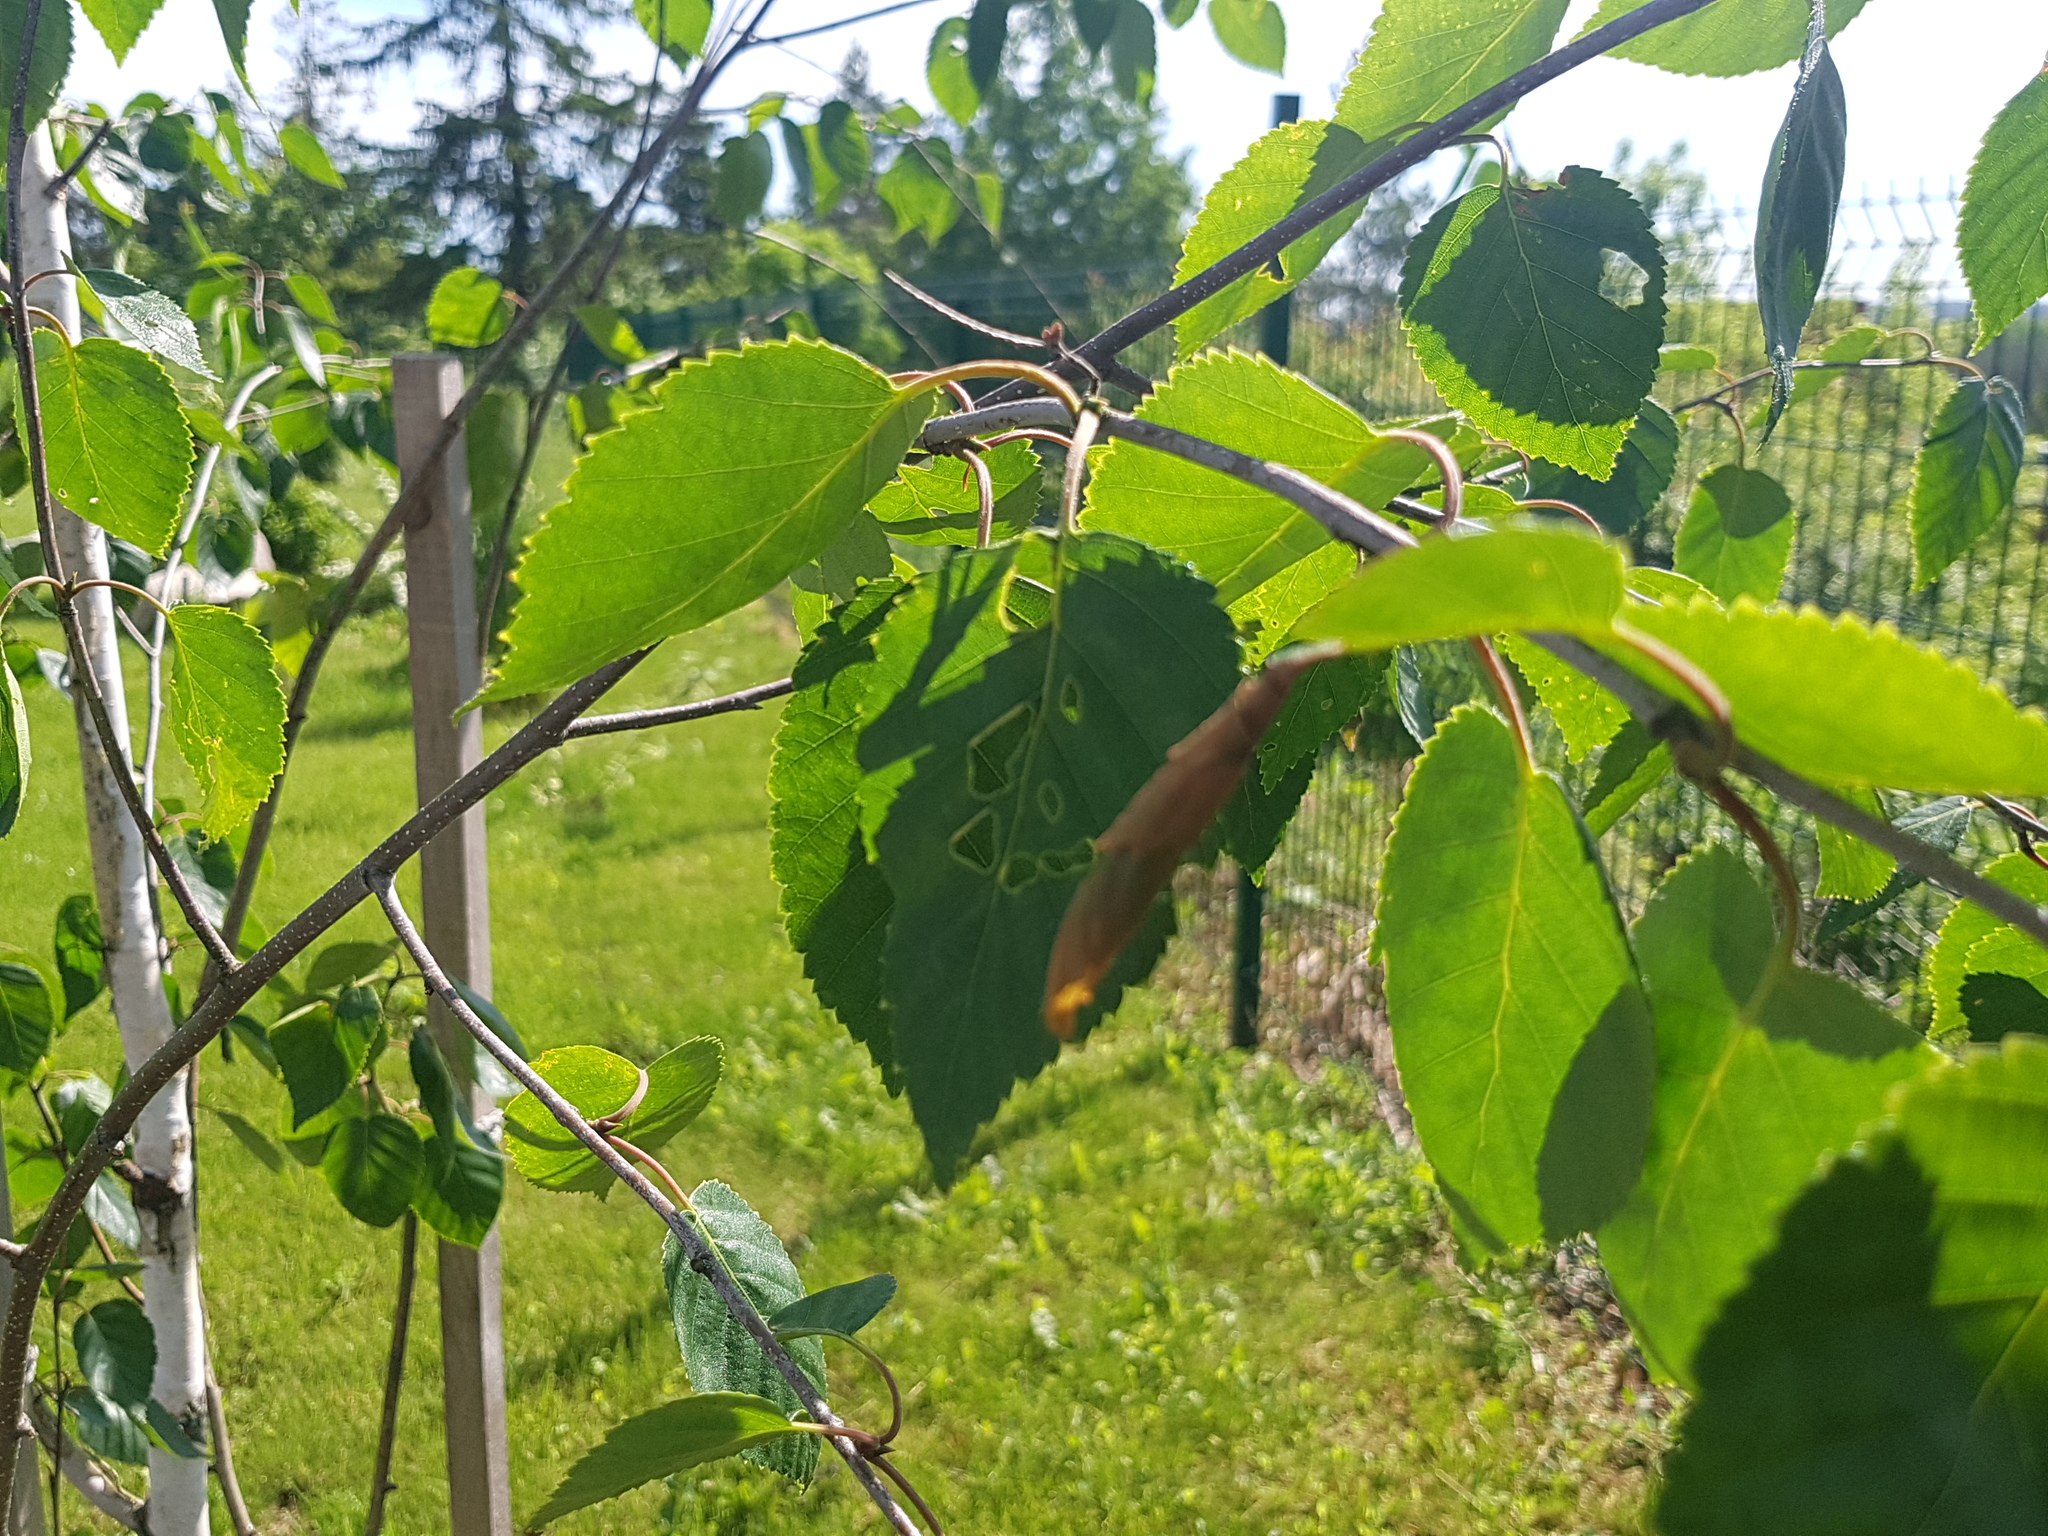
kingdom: Animalia
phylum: Arthropoda
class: Insecta
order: Coleoptera
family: Attelabidae
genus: Deporaus
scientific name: Deporaus betulae
